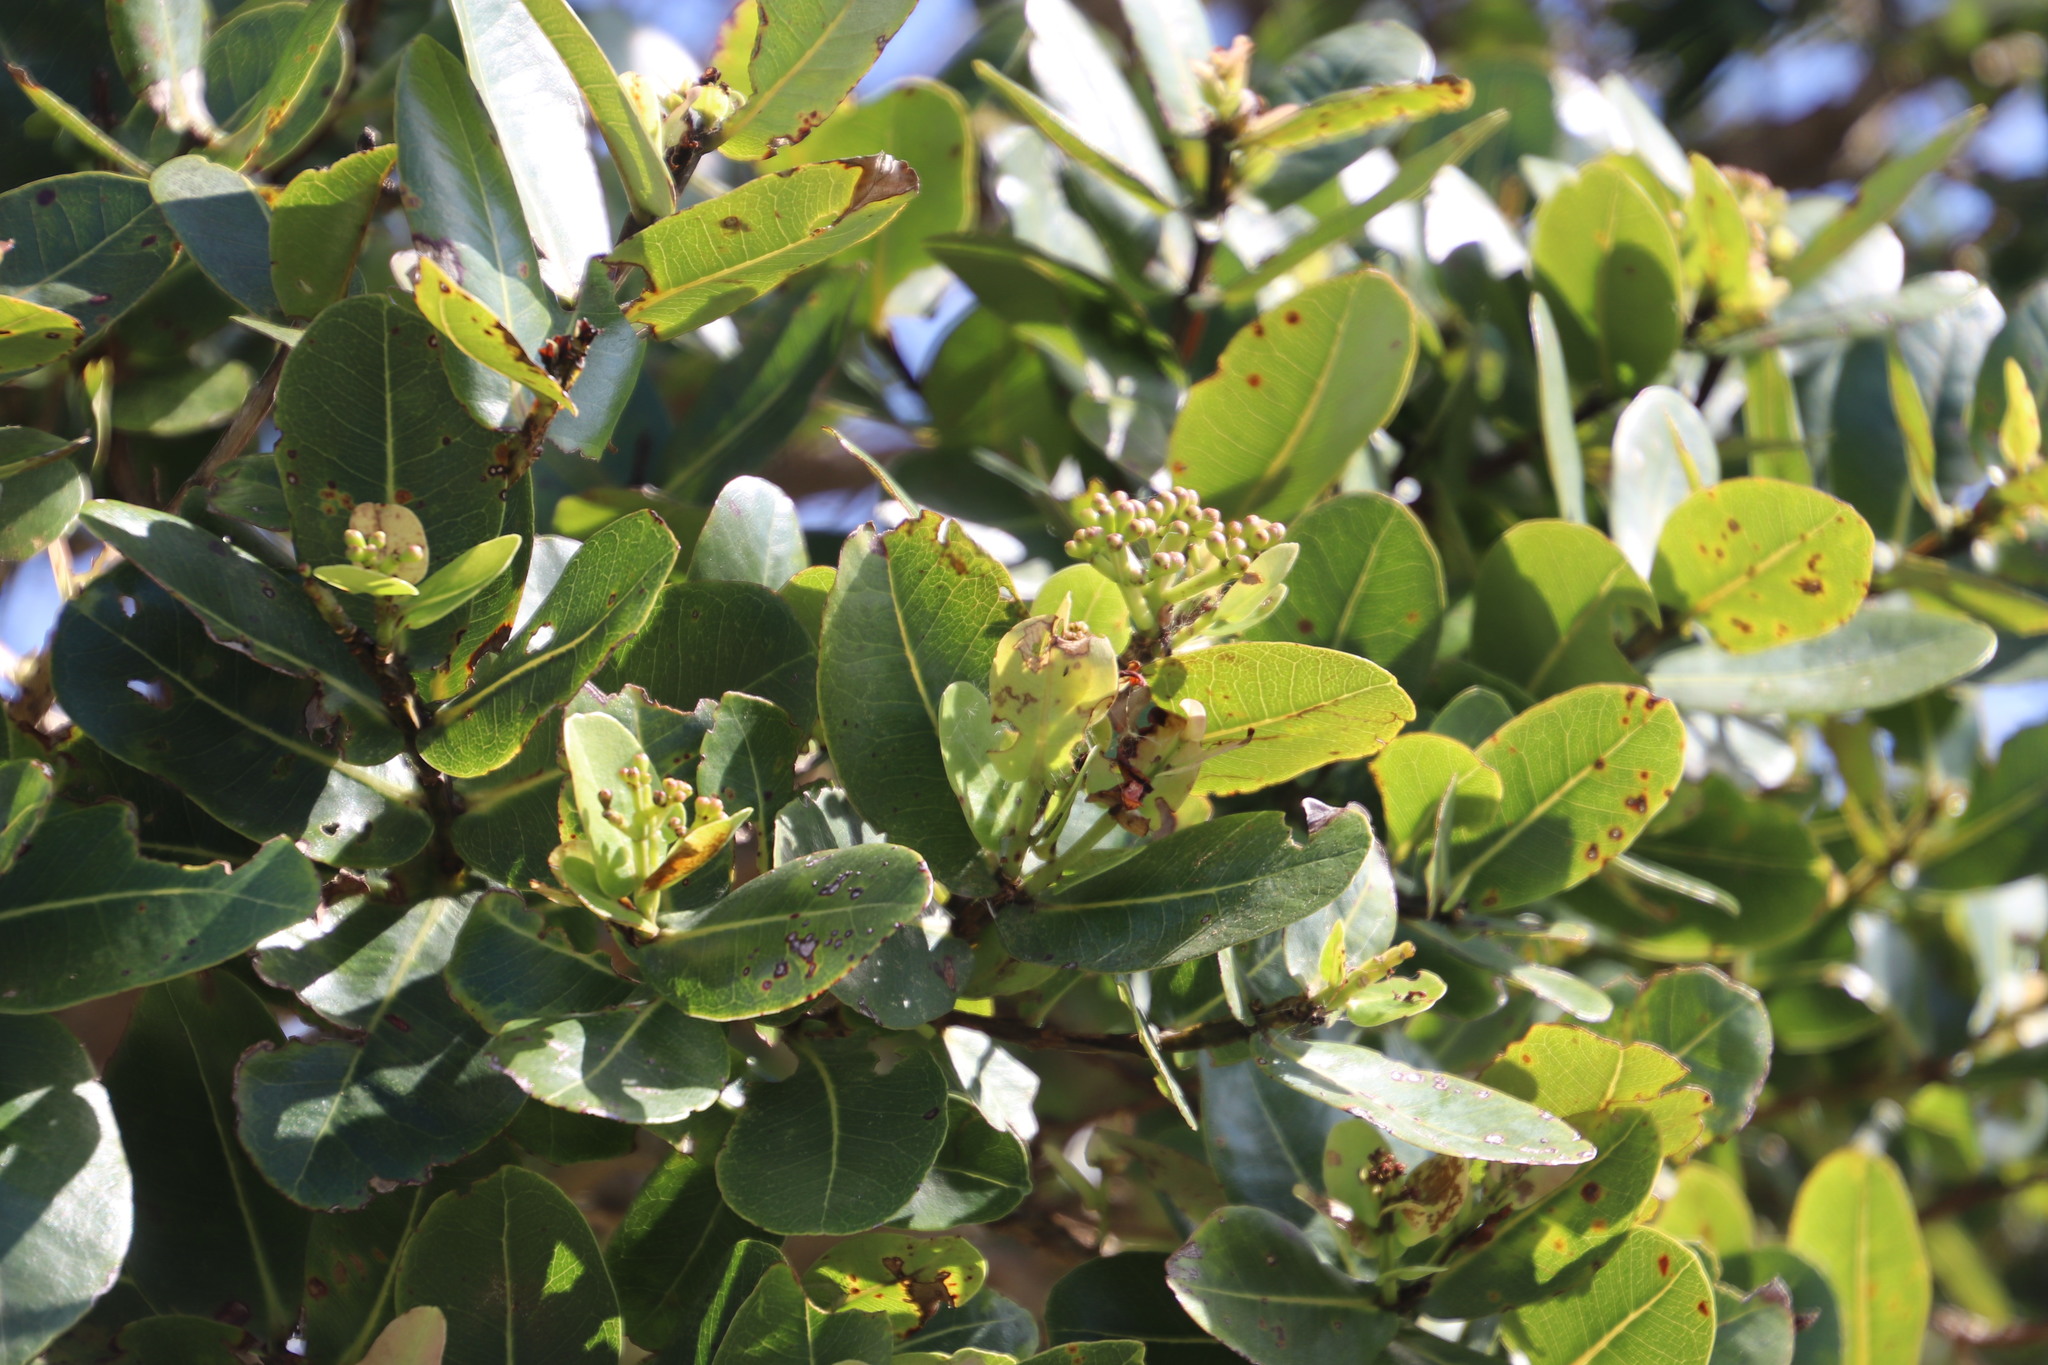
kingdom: Plantae
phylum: Tracheophyta
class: Magnoliopsida
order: Myrtales
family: Myrtaceae
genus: Syzygium
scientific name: Syzygium cordatum
